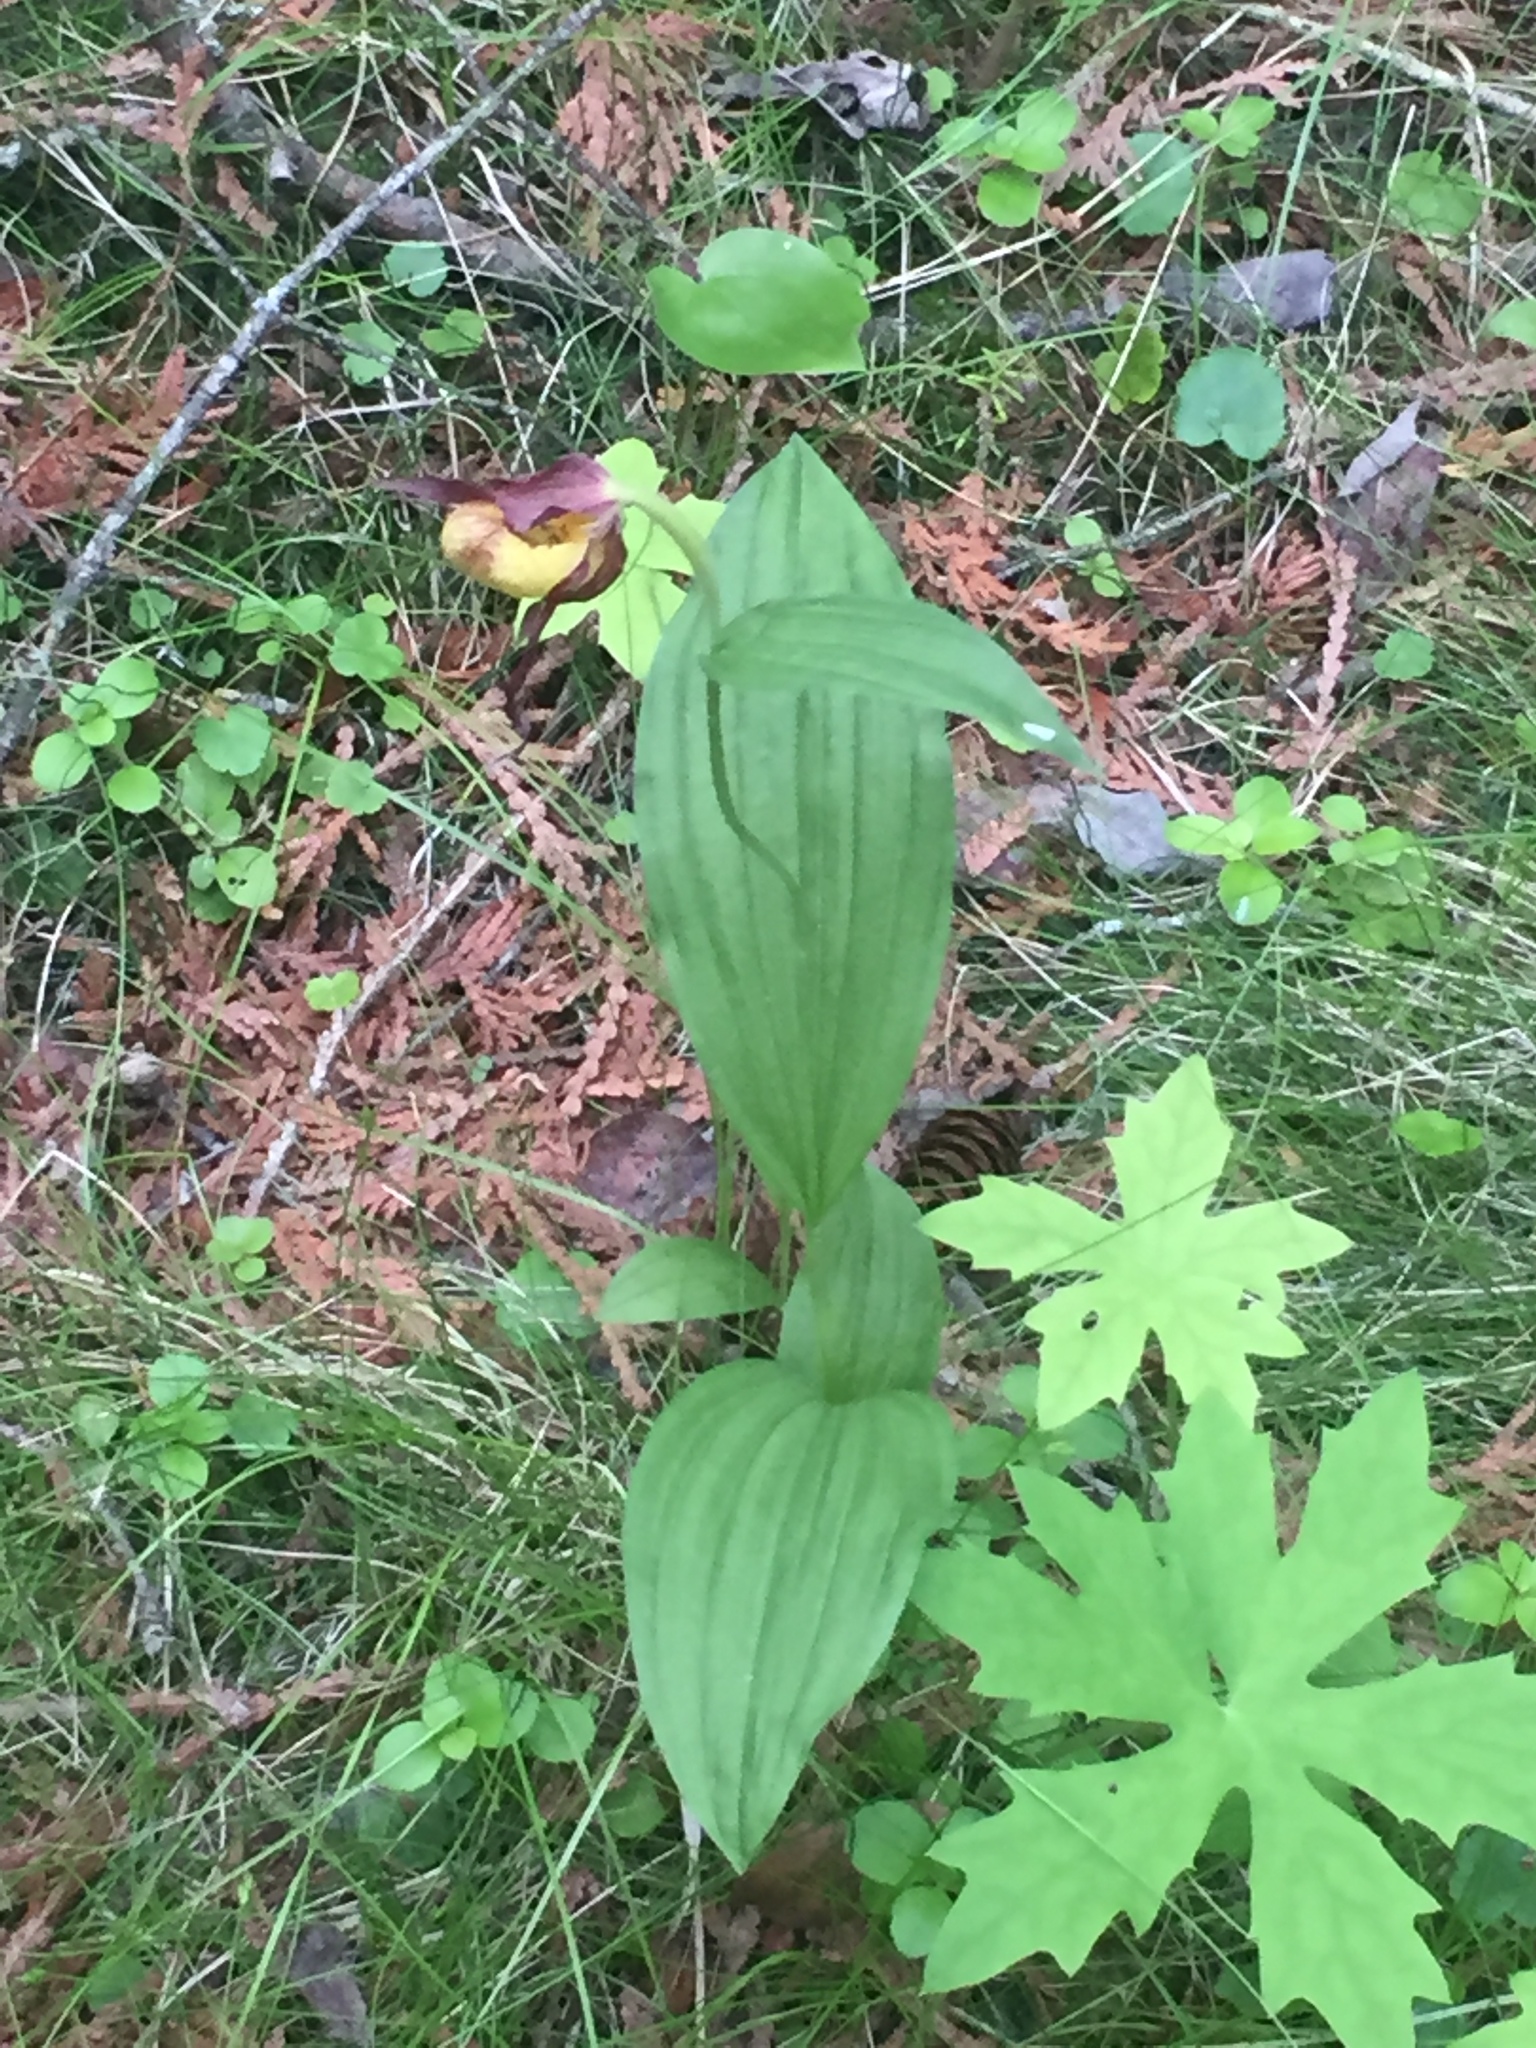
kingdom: Plantae
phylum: Tracheophyta
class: Liliopsida
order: Asparagales
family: Orchidaceae
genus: Cypripedium
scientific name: Cypripedium parviflorum
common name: American yellow lady's-slipper
